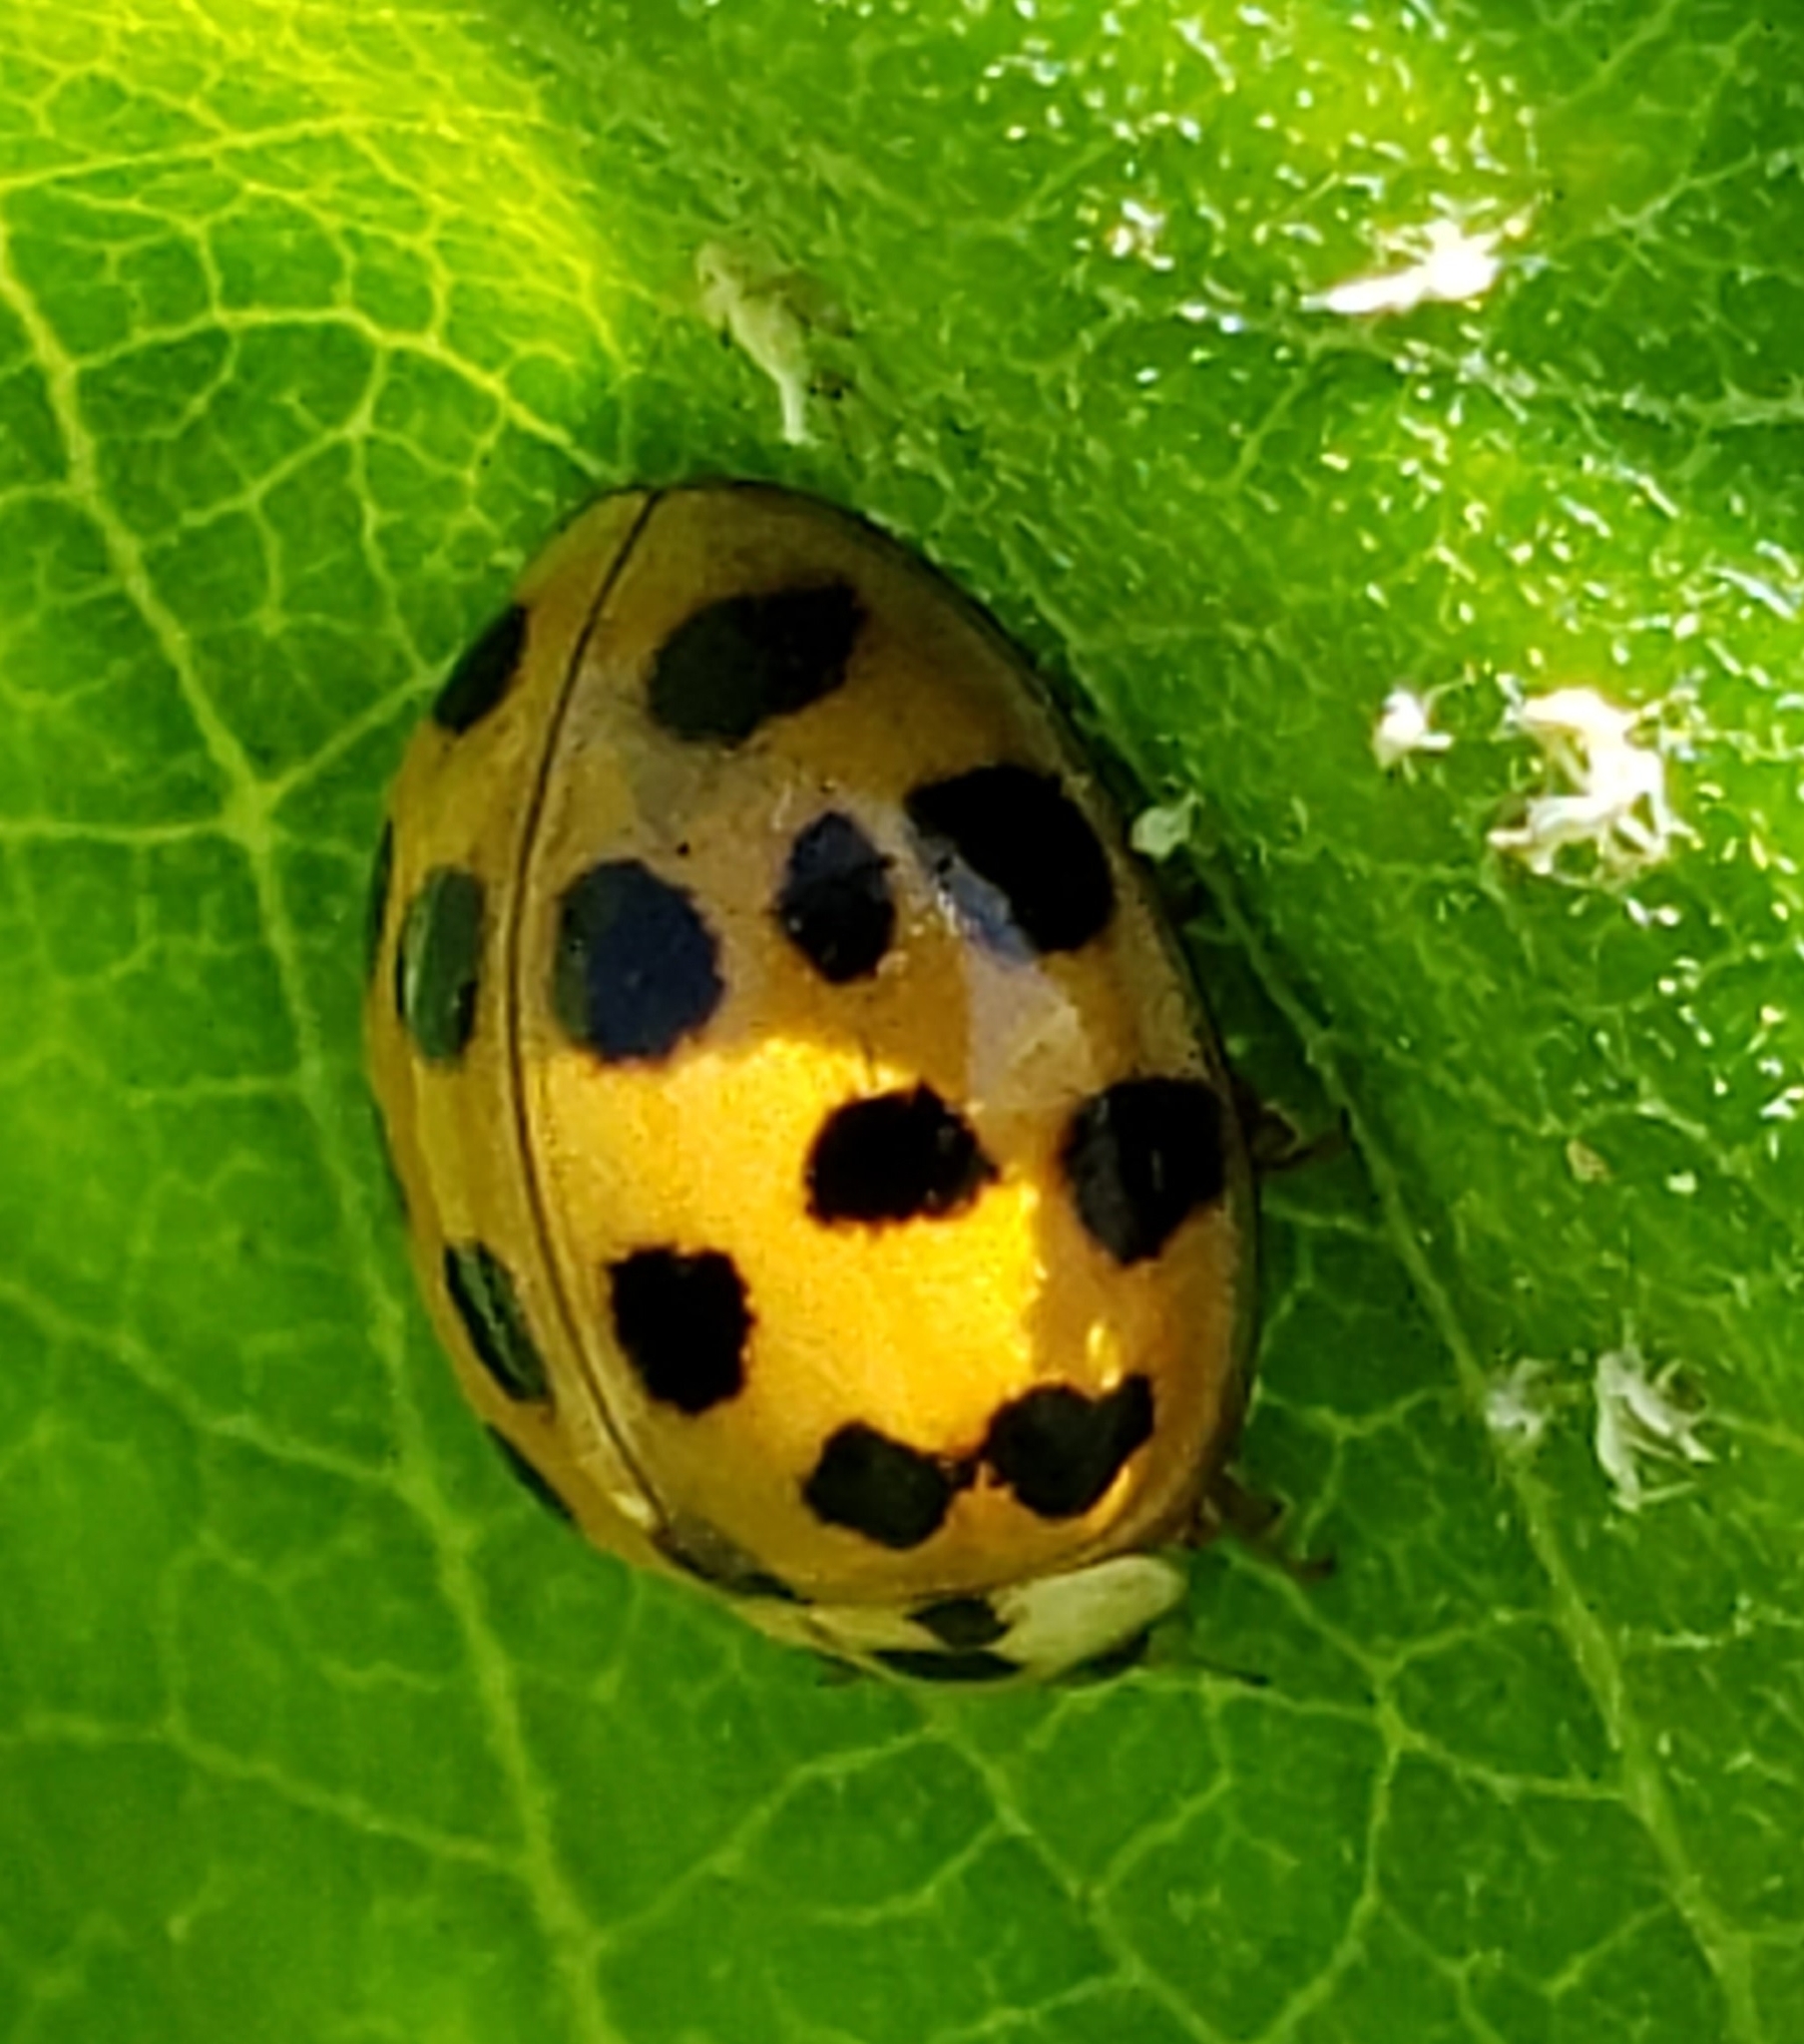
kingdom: Animalia
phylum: Arthropoda
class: Insecta
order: Coleoptera
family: Coccinellidae
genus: Harmonia
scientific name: Harmonia axyridis
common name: Harlequin ladybird
